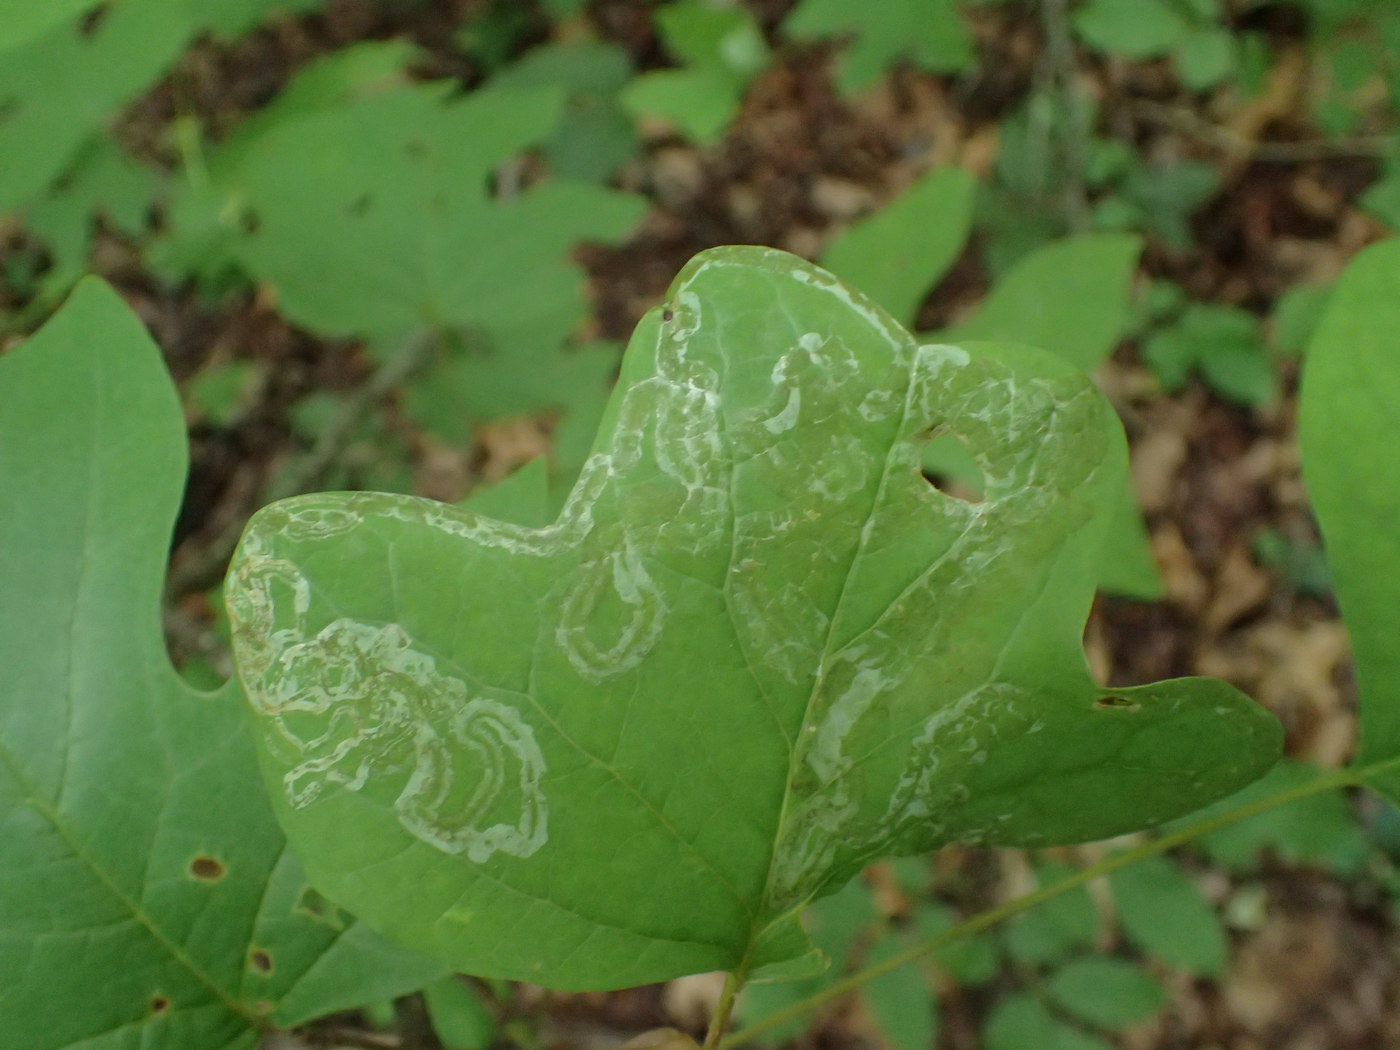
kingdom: Animalia
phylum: Arthropoda
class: Insecta
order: Lepidoptera
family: Gracillariidae
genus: Phyllocnistis
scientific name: Phyllocnistis liriodendronella
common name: Tulip tree leaf miner
